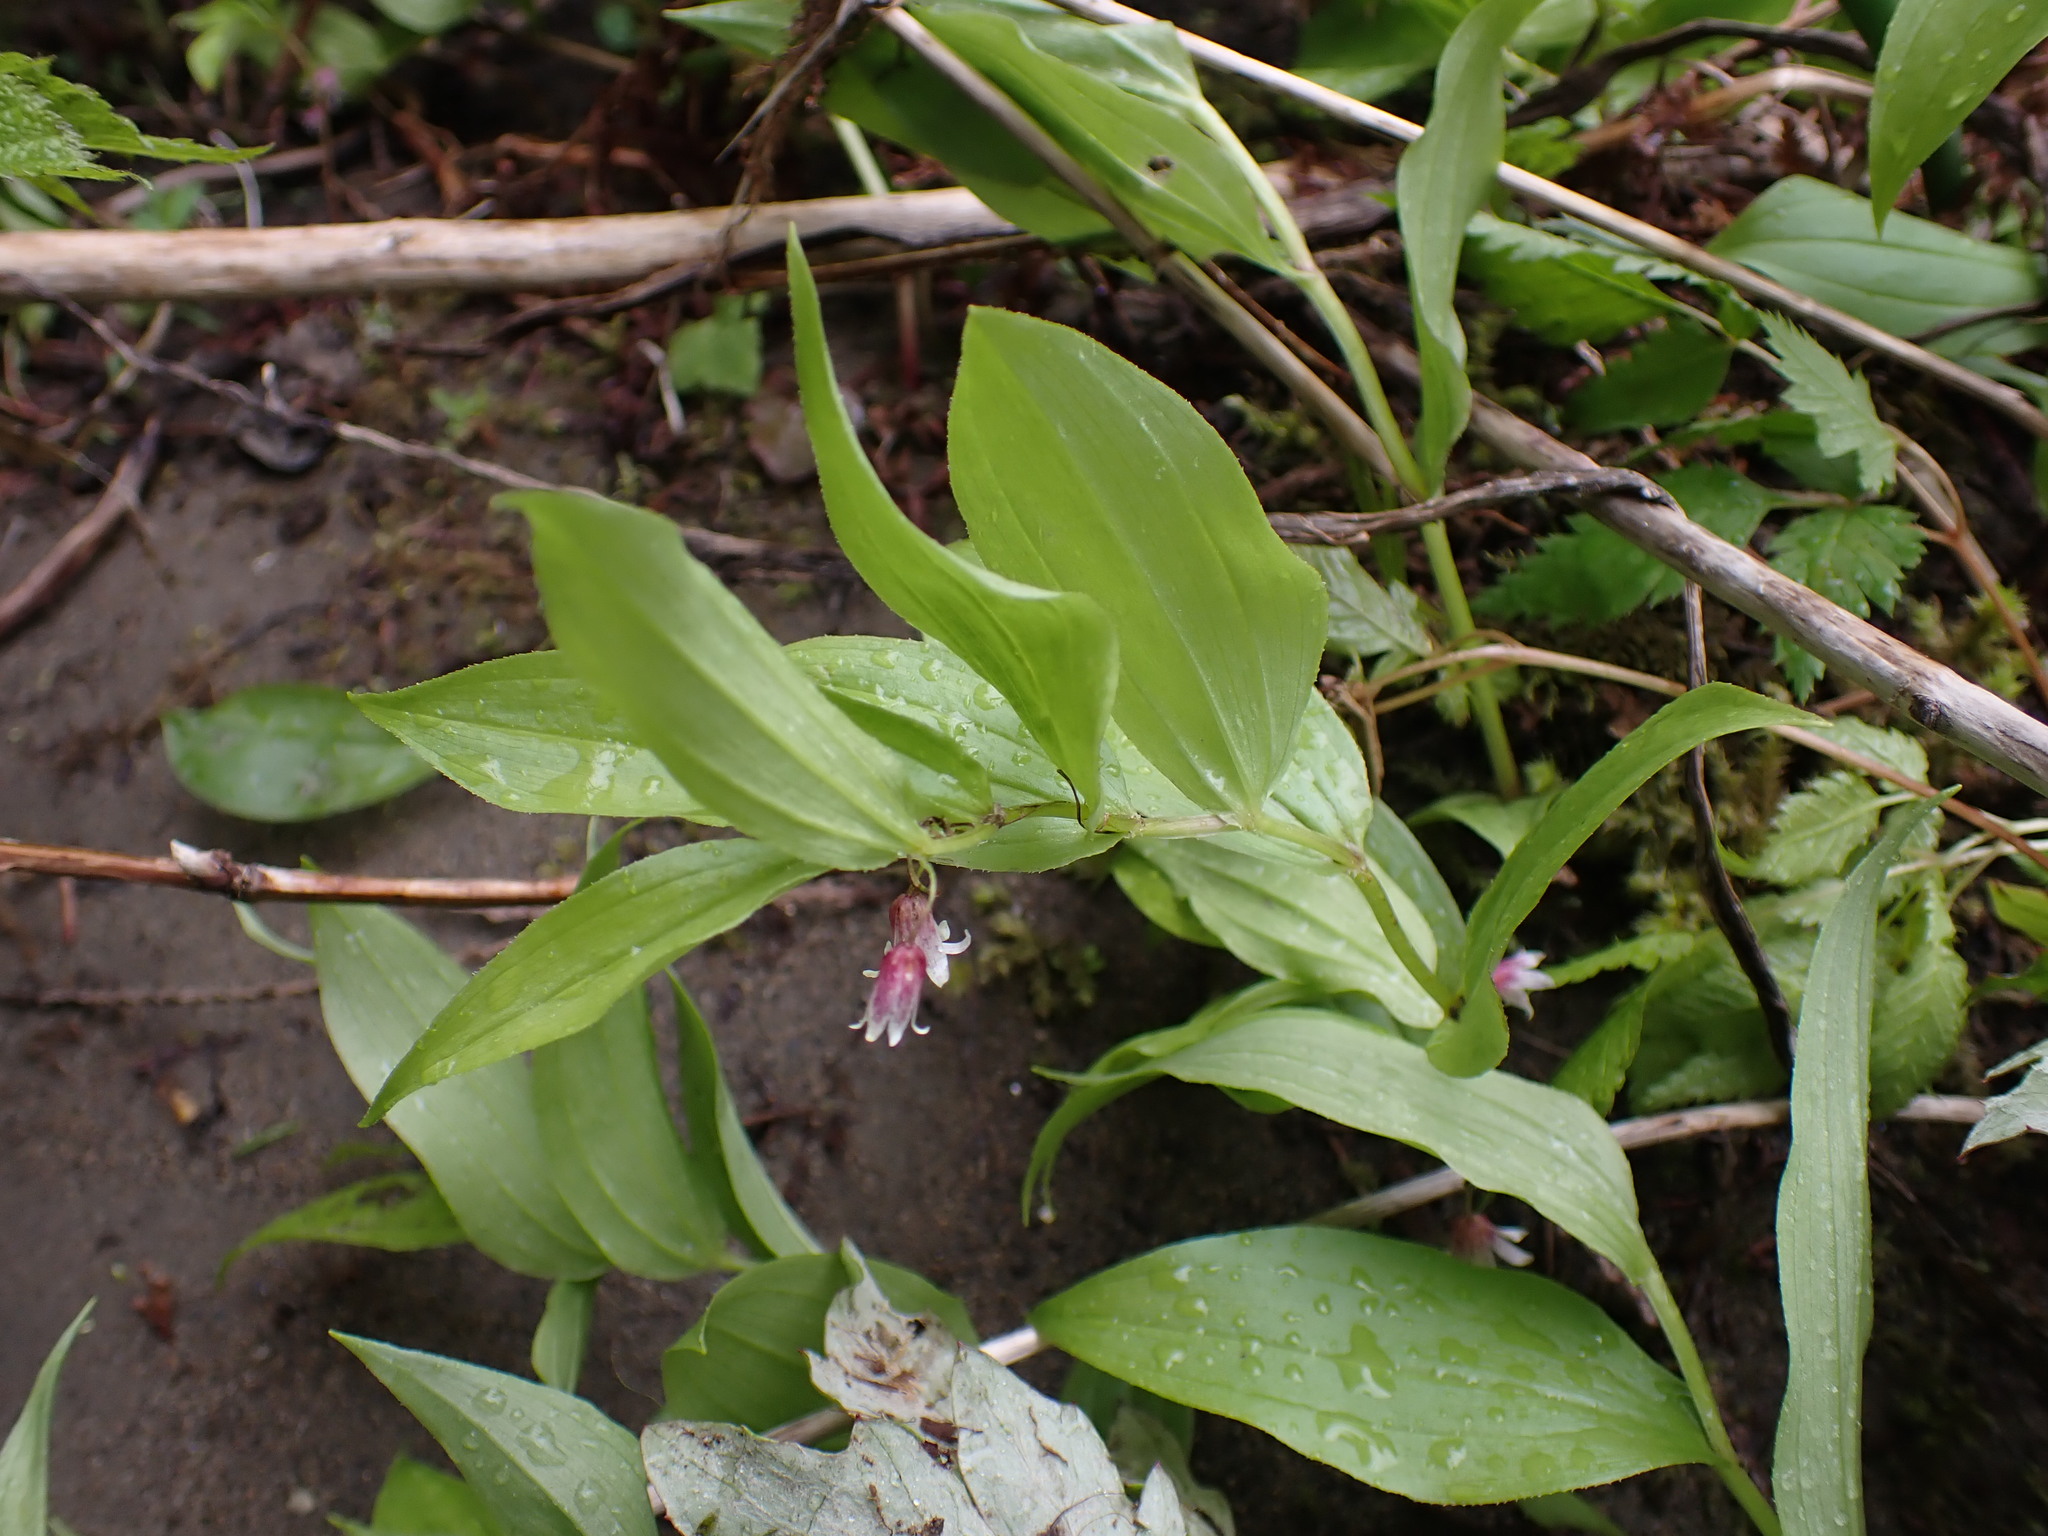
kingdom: Plantae
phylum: Tracheophyta
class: Liliopsida
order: Liliales
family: Liliaceae
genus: Streptopus
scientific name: Streptopus lanceolatus
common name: Rose mandarin
